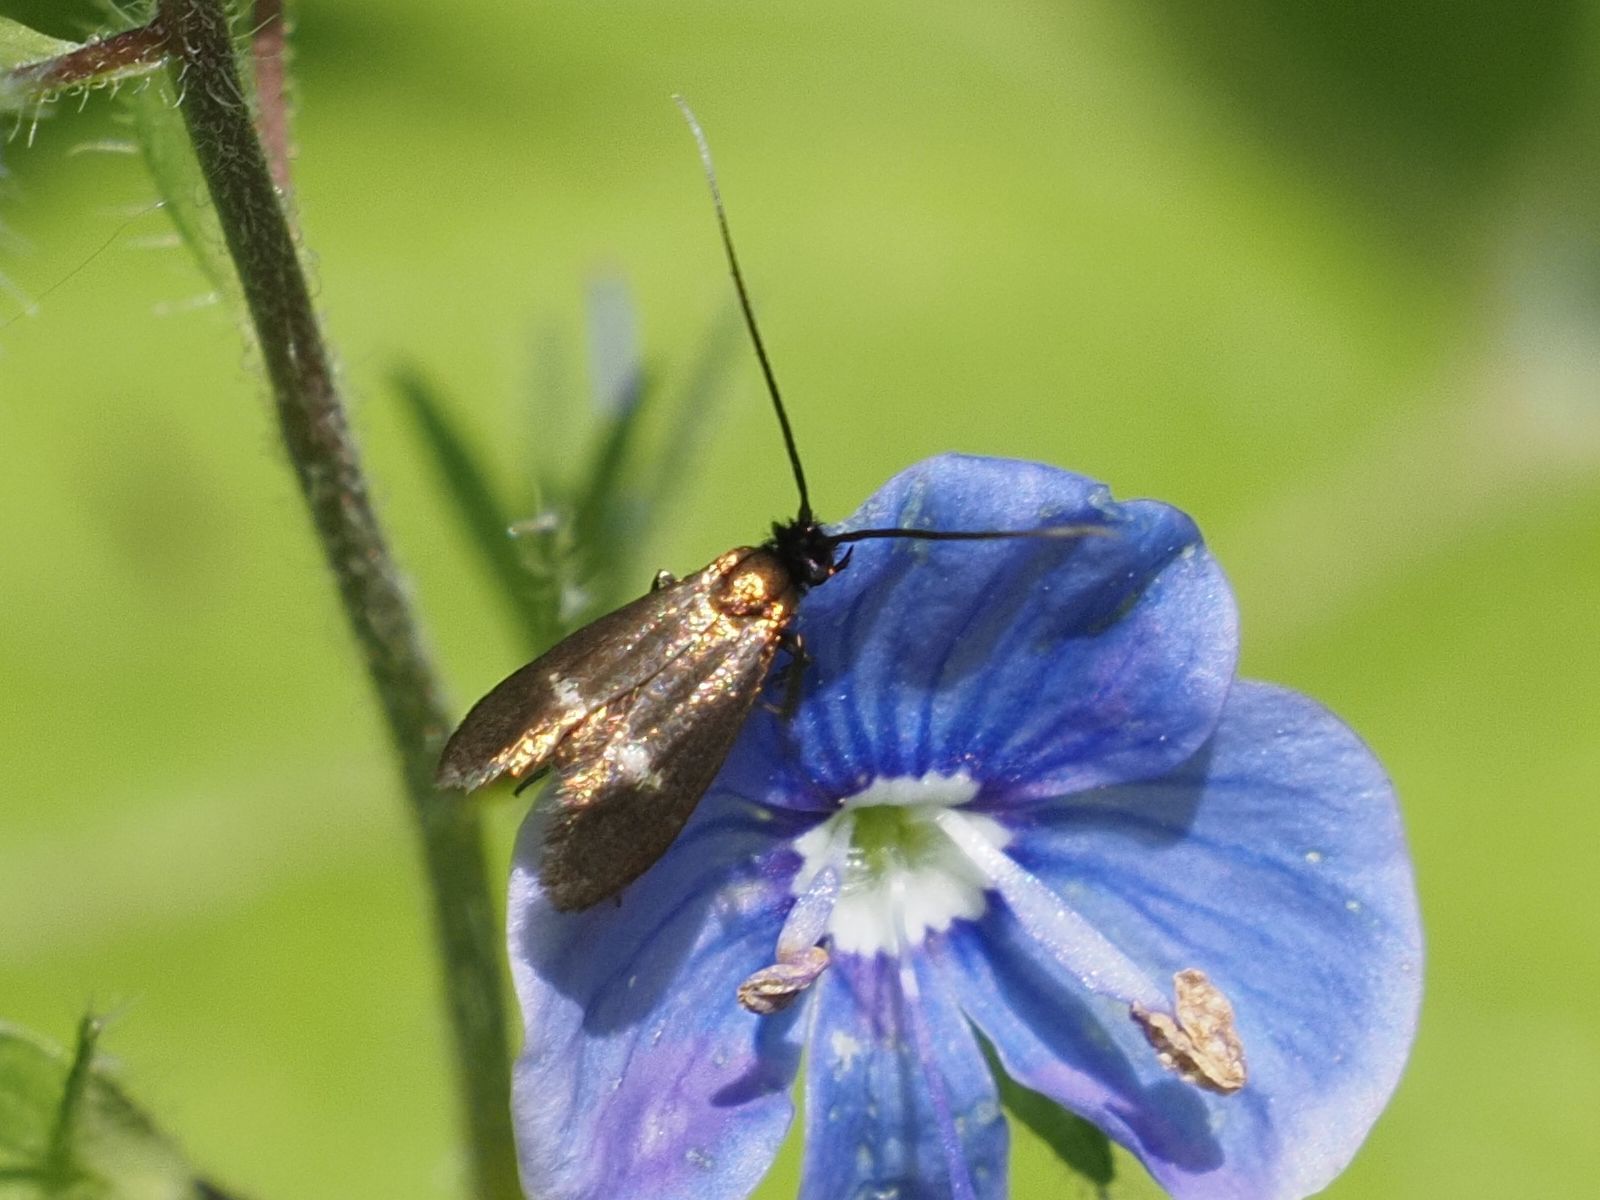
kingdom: Animalia
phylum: Arthropoda
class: Insecta
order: Lepidoptera
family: Adelidae
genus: Cauchas
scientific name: Cauchas fibulella
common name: Little long-horn
